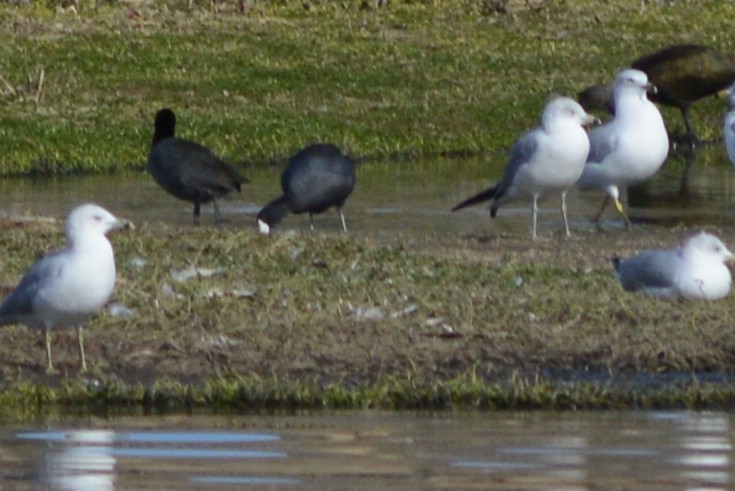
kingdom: Animalia
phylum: Chordata
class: Aves
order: Gruiformes
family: Rallidae
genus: Fulica
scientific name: Fulica americana
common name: American coot
